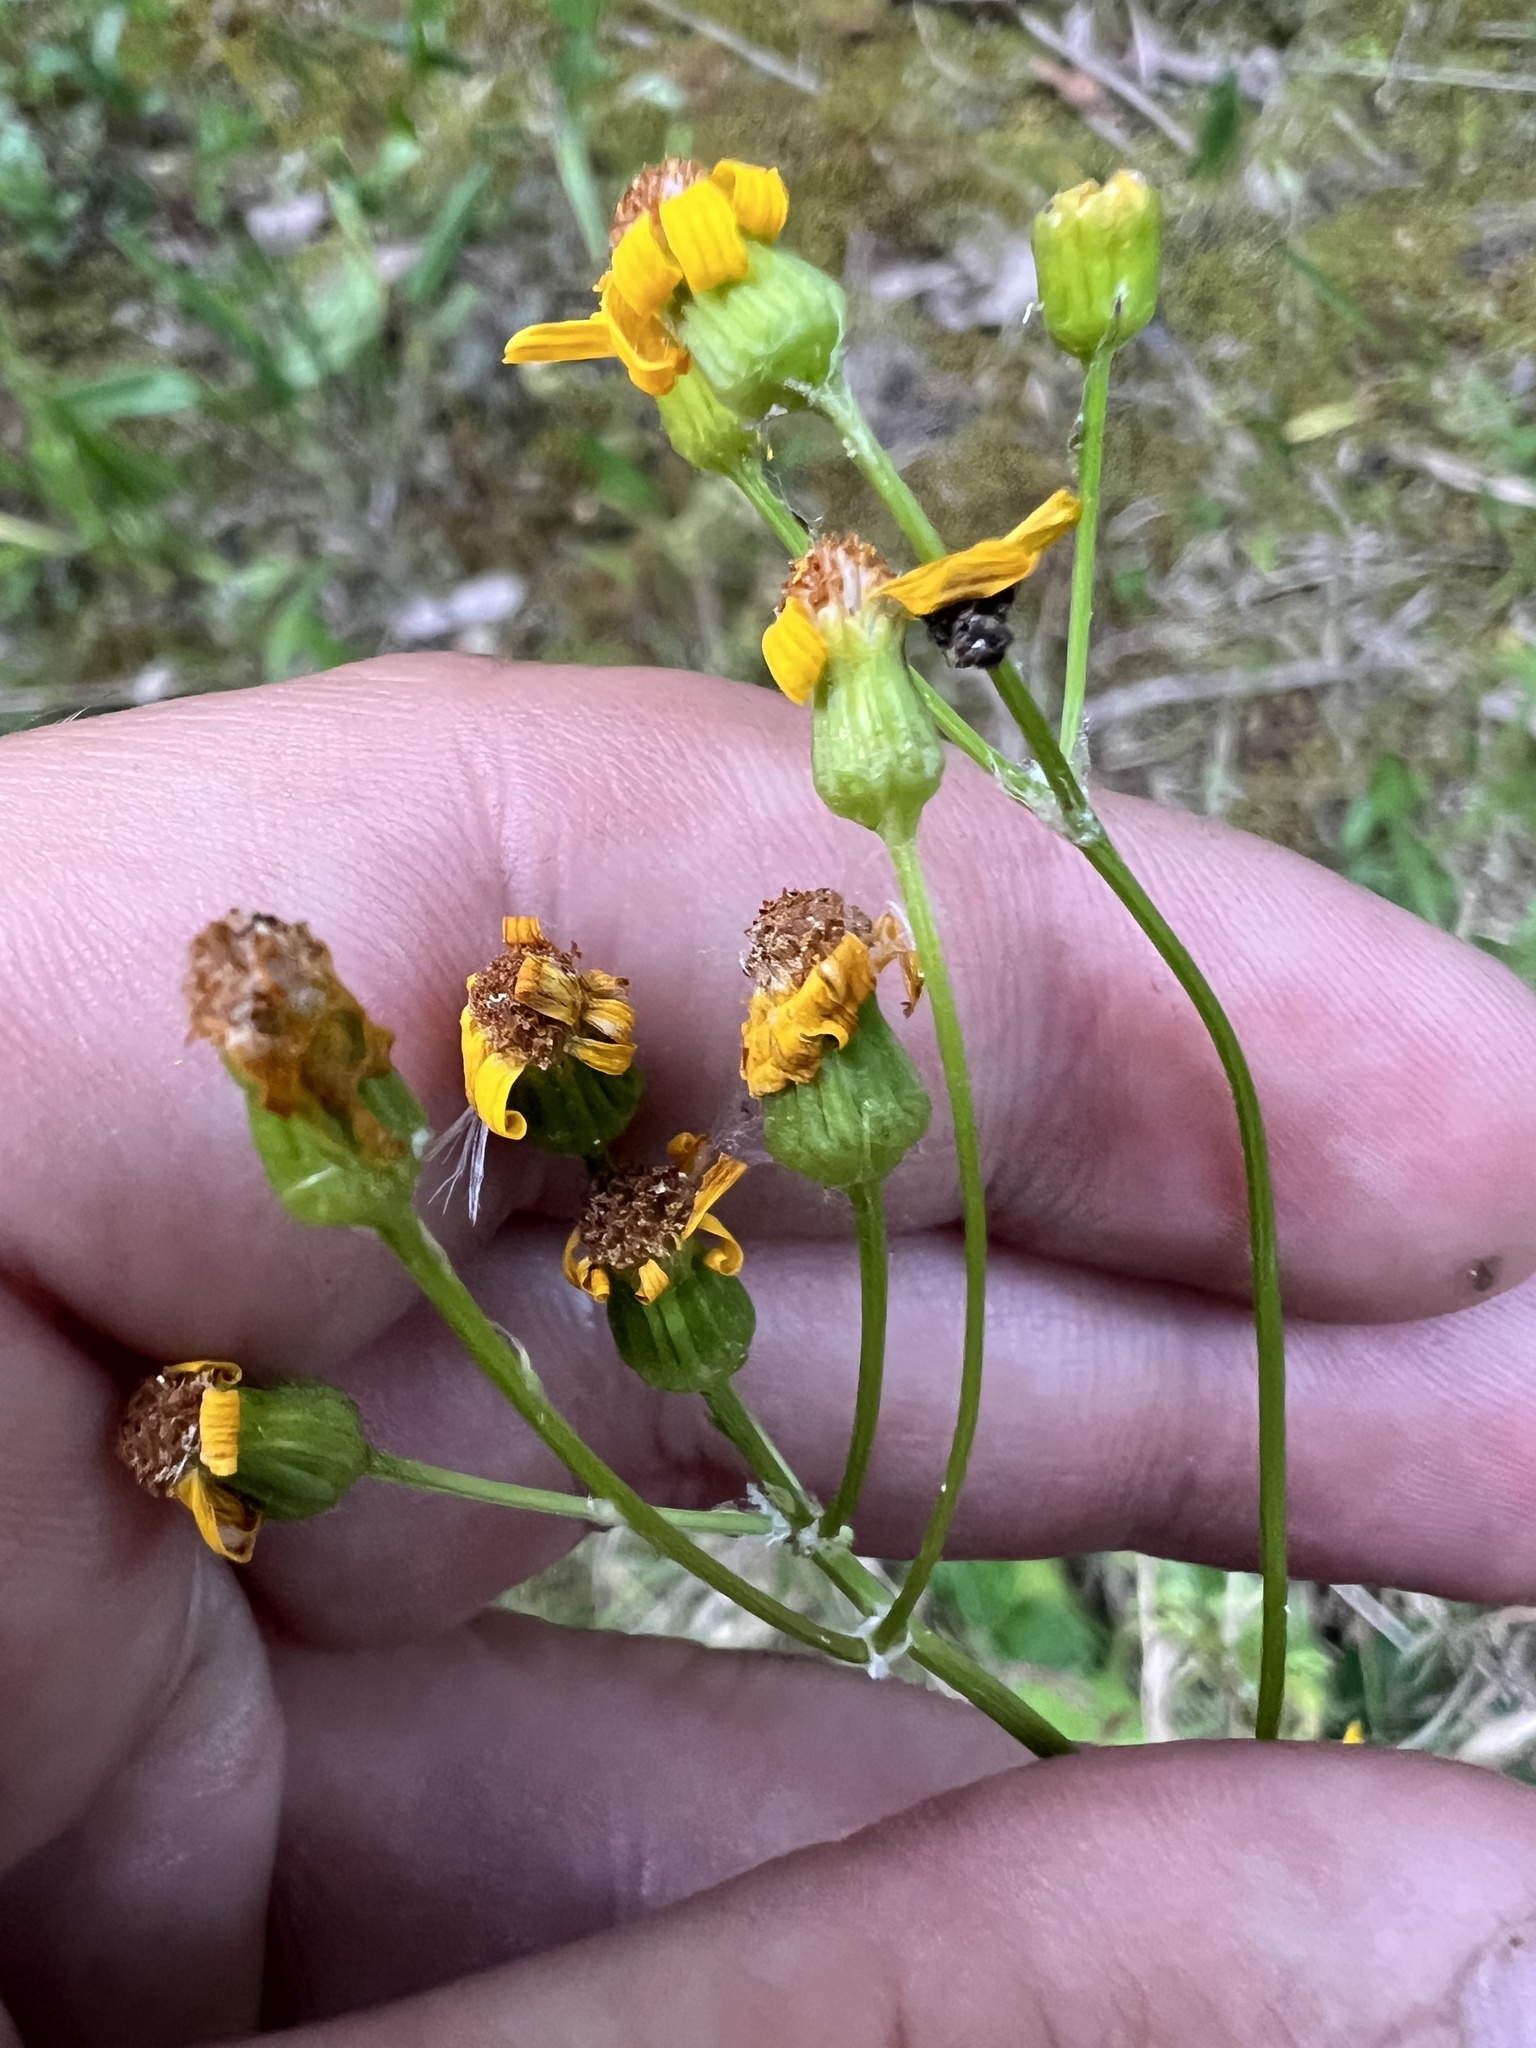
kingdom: Plantae
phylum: Tracheophyta
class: Magnoliopsida
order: Asterales
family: Asteraceae
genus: Packera
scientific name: Packera anonyma
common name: Small ragwort
